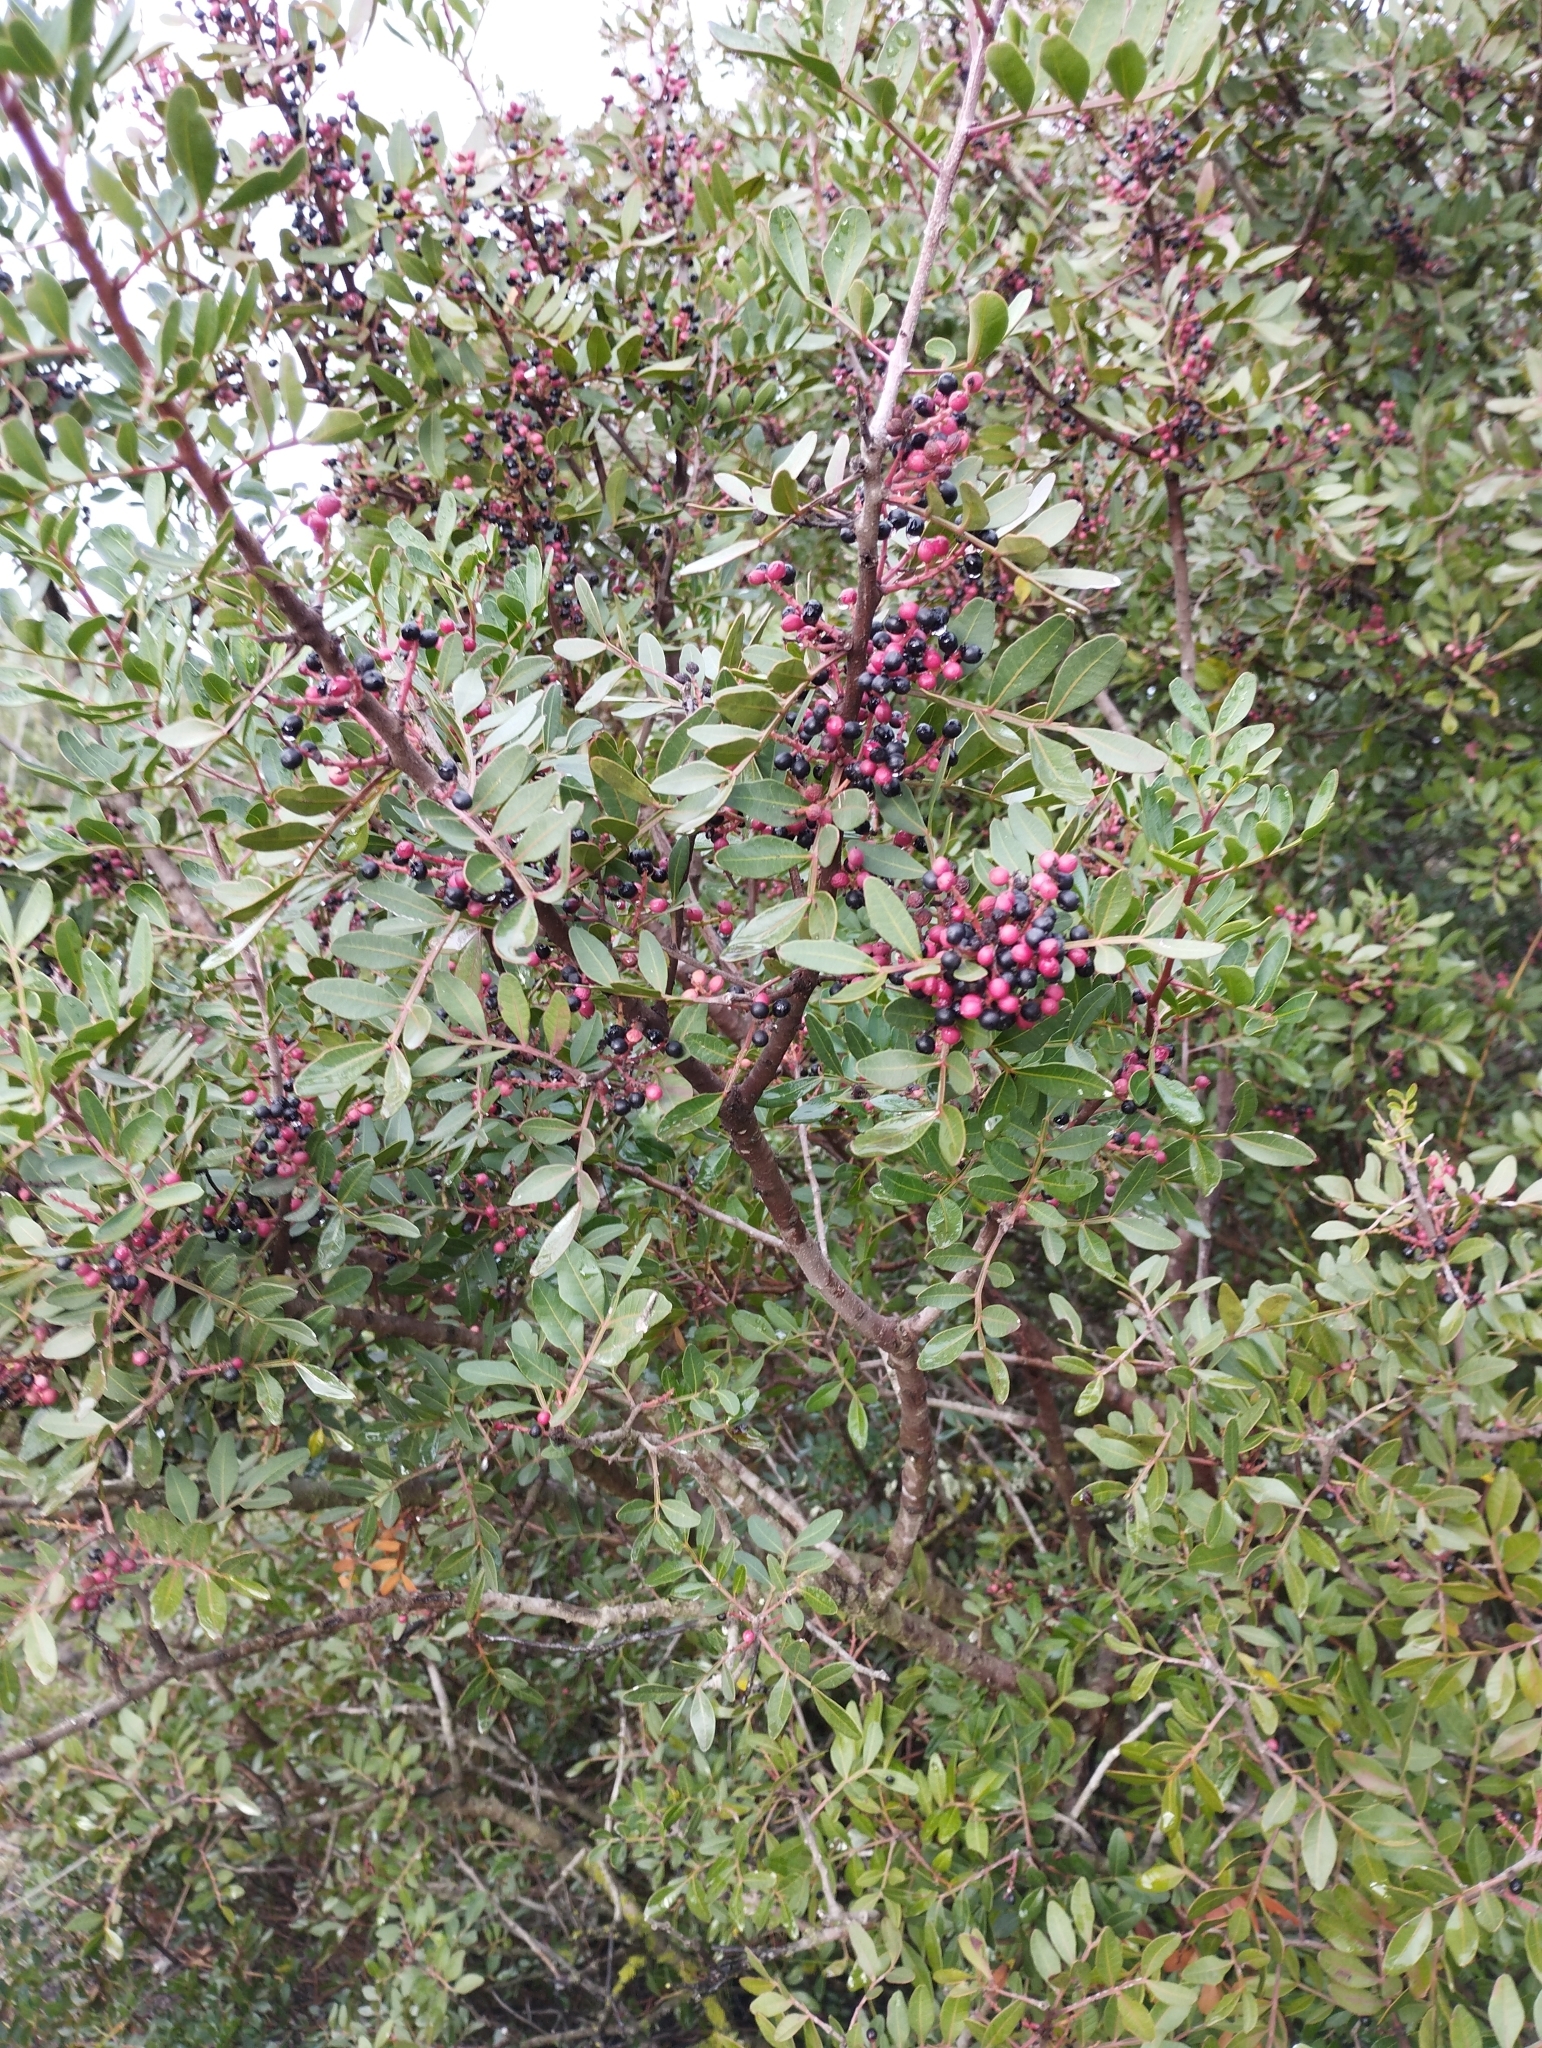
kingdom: Plantae
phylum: Tracheophyta
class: Magnoliopsida
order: Sapindales
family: Anacardiaceae
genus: Pistacia
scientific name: Pistacia lentiscus
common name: Lentisk
